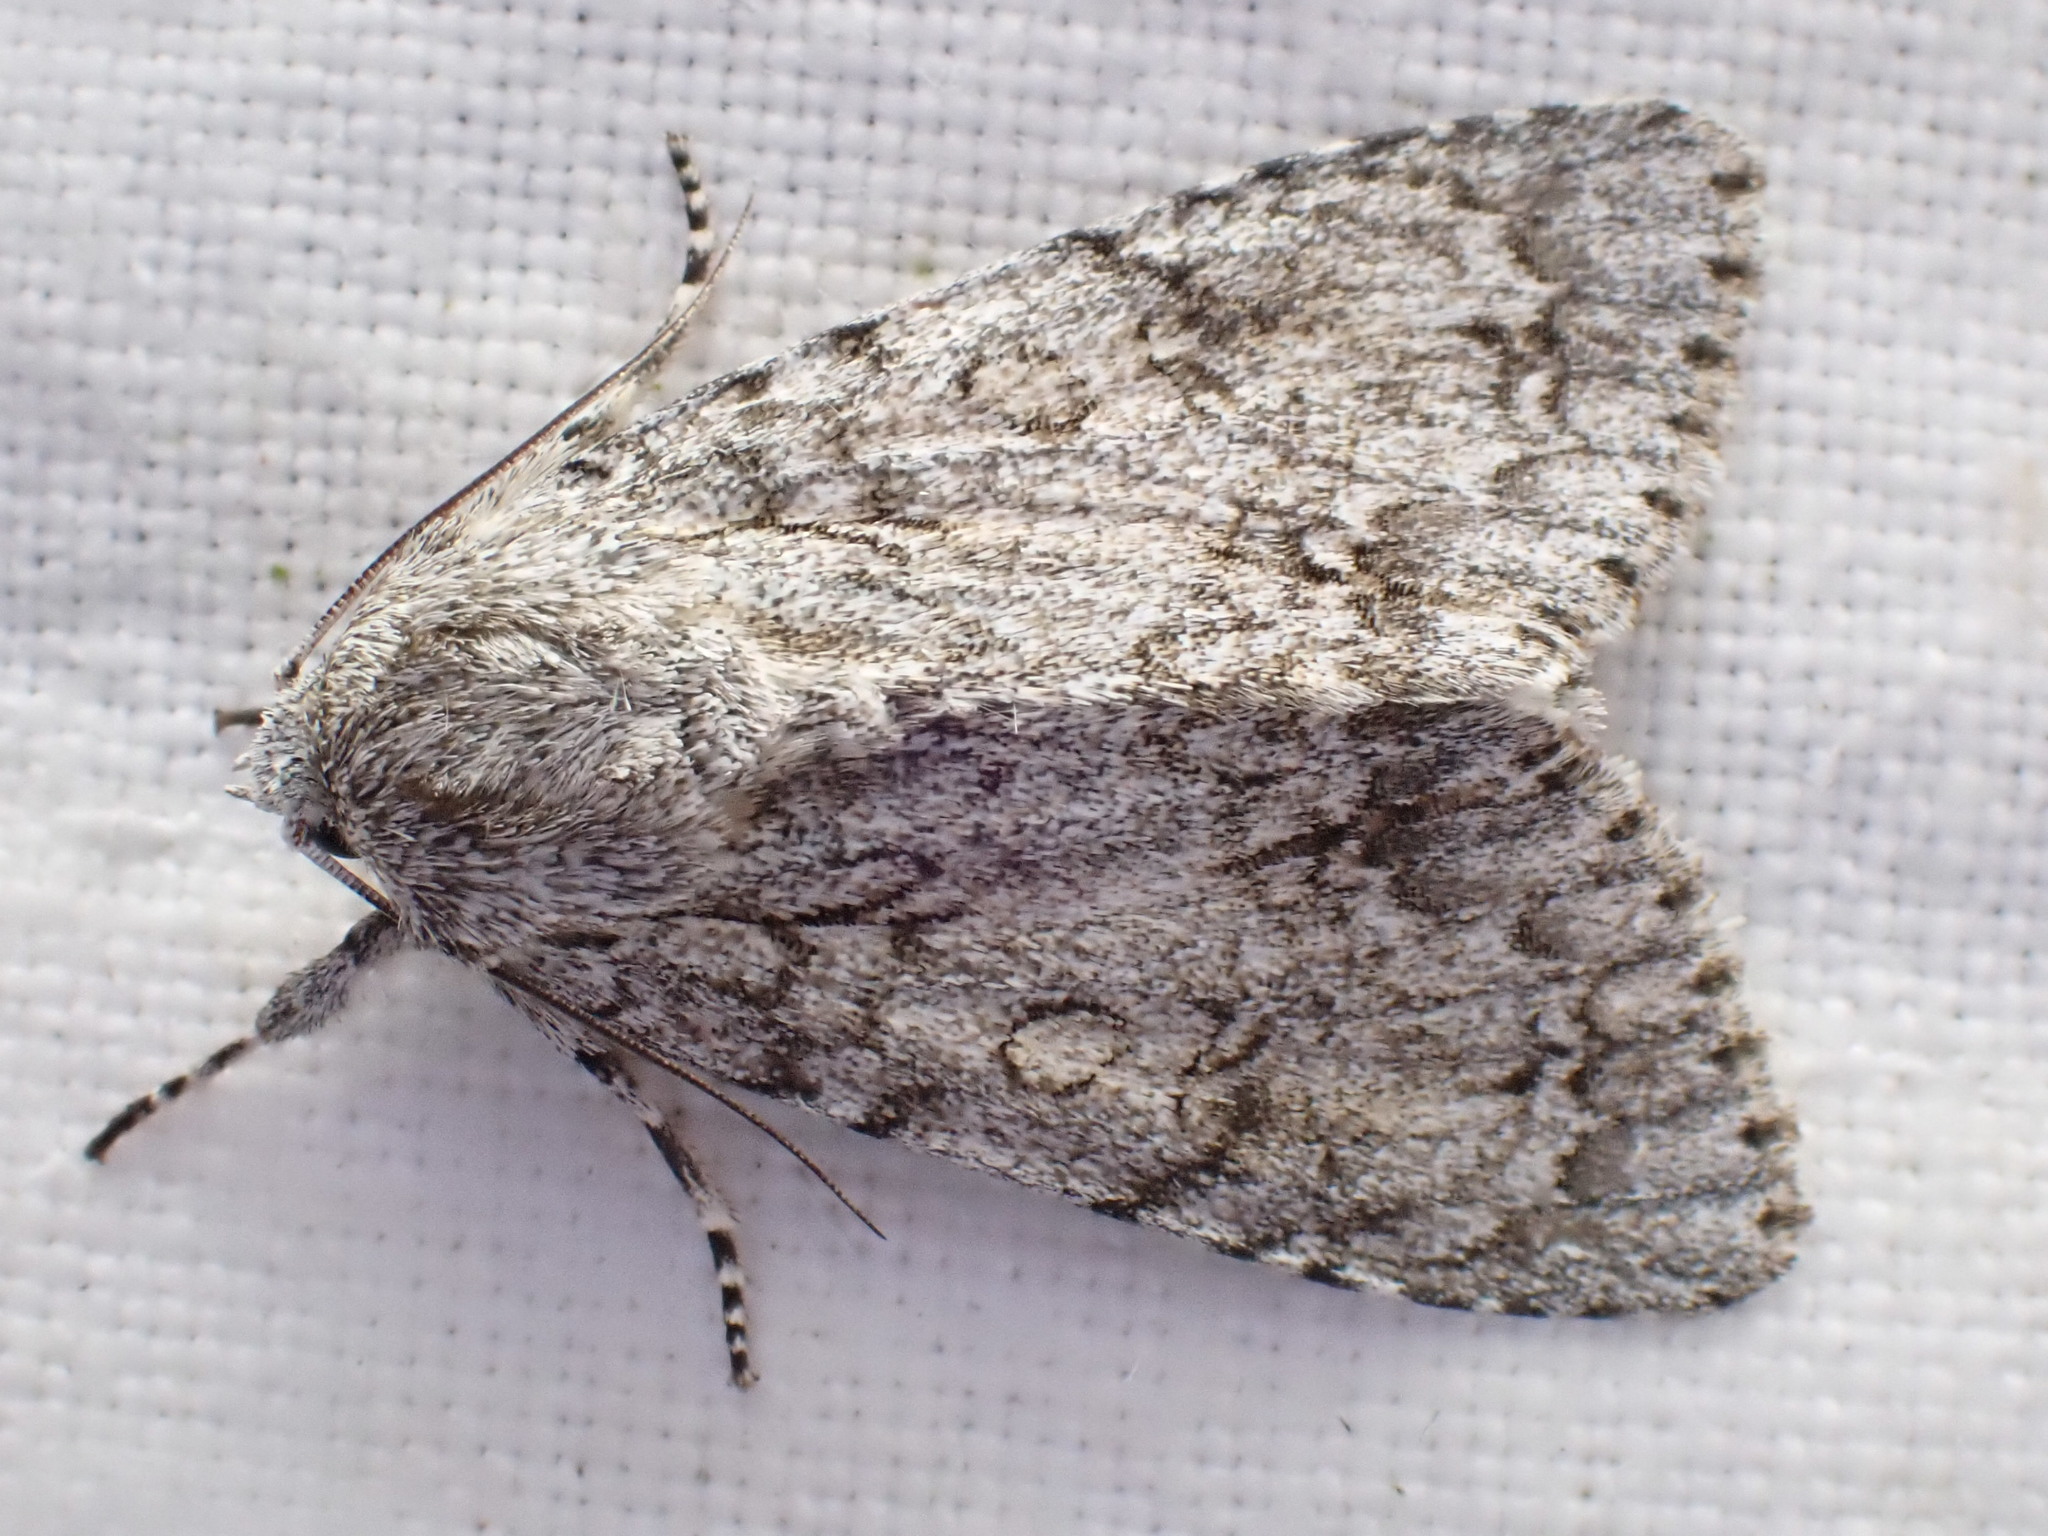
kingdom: Animalia
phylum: Arthropoda
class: Insecta
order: Lepidoptera
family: Noctuidae
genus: Acronicta
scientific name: Acronicta megacephala
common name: Poplar grey
